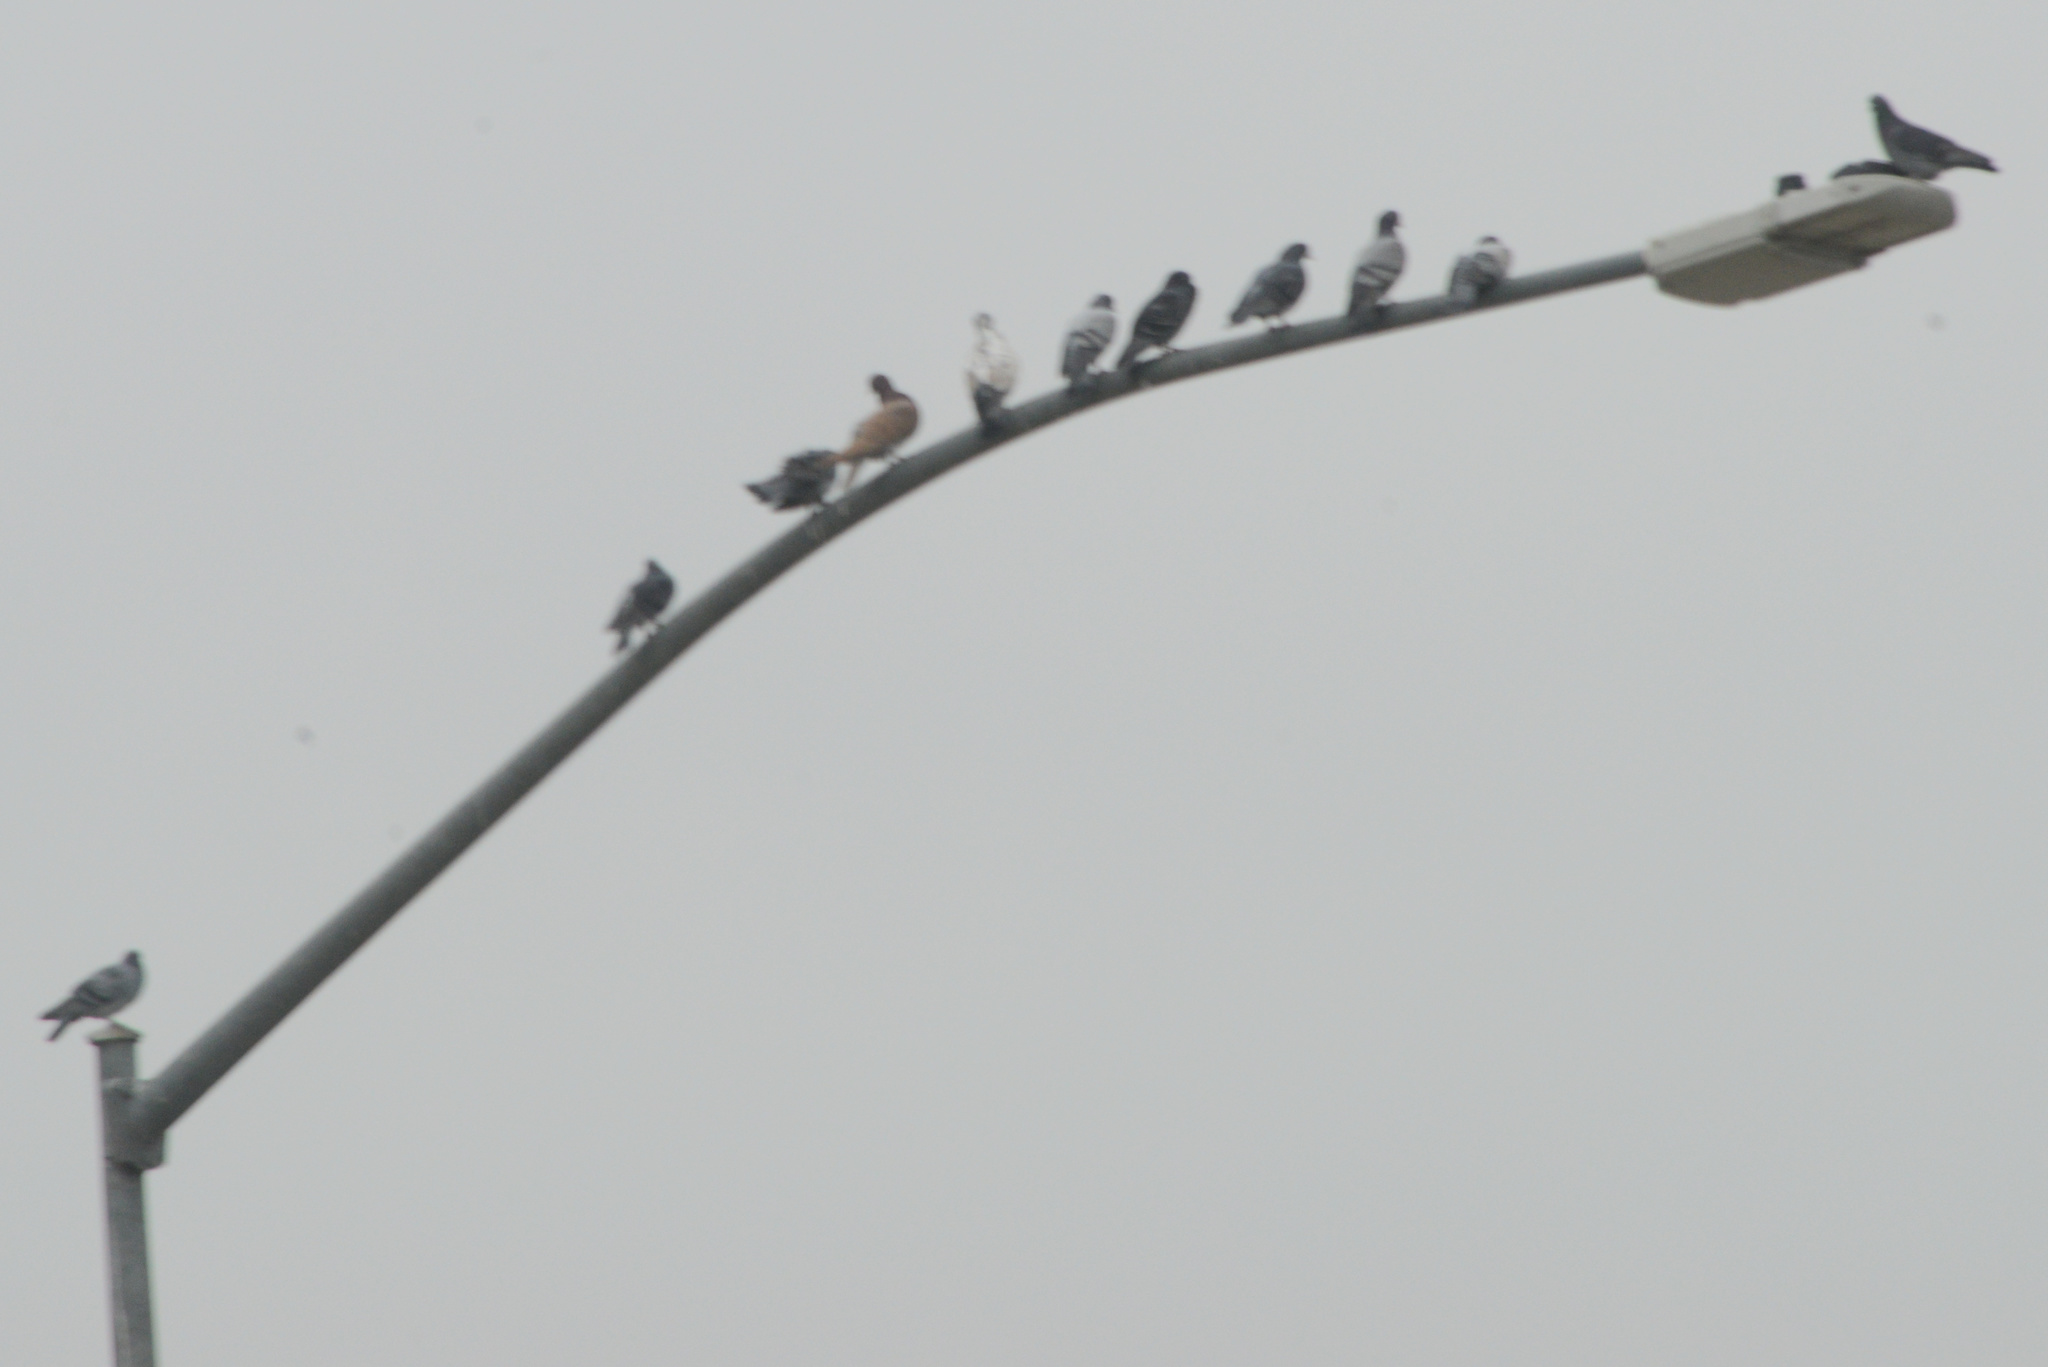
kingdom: Animalia
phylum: Chordata
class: Aves
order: Columbiformes
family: Columbidae
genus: Columba
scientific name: Columba livia
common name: Rock pigeon
